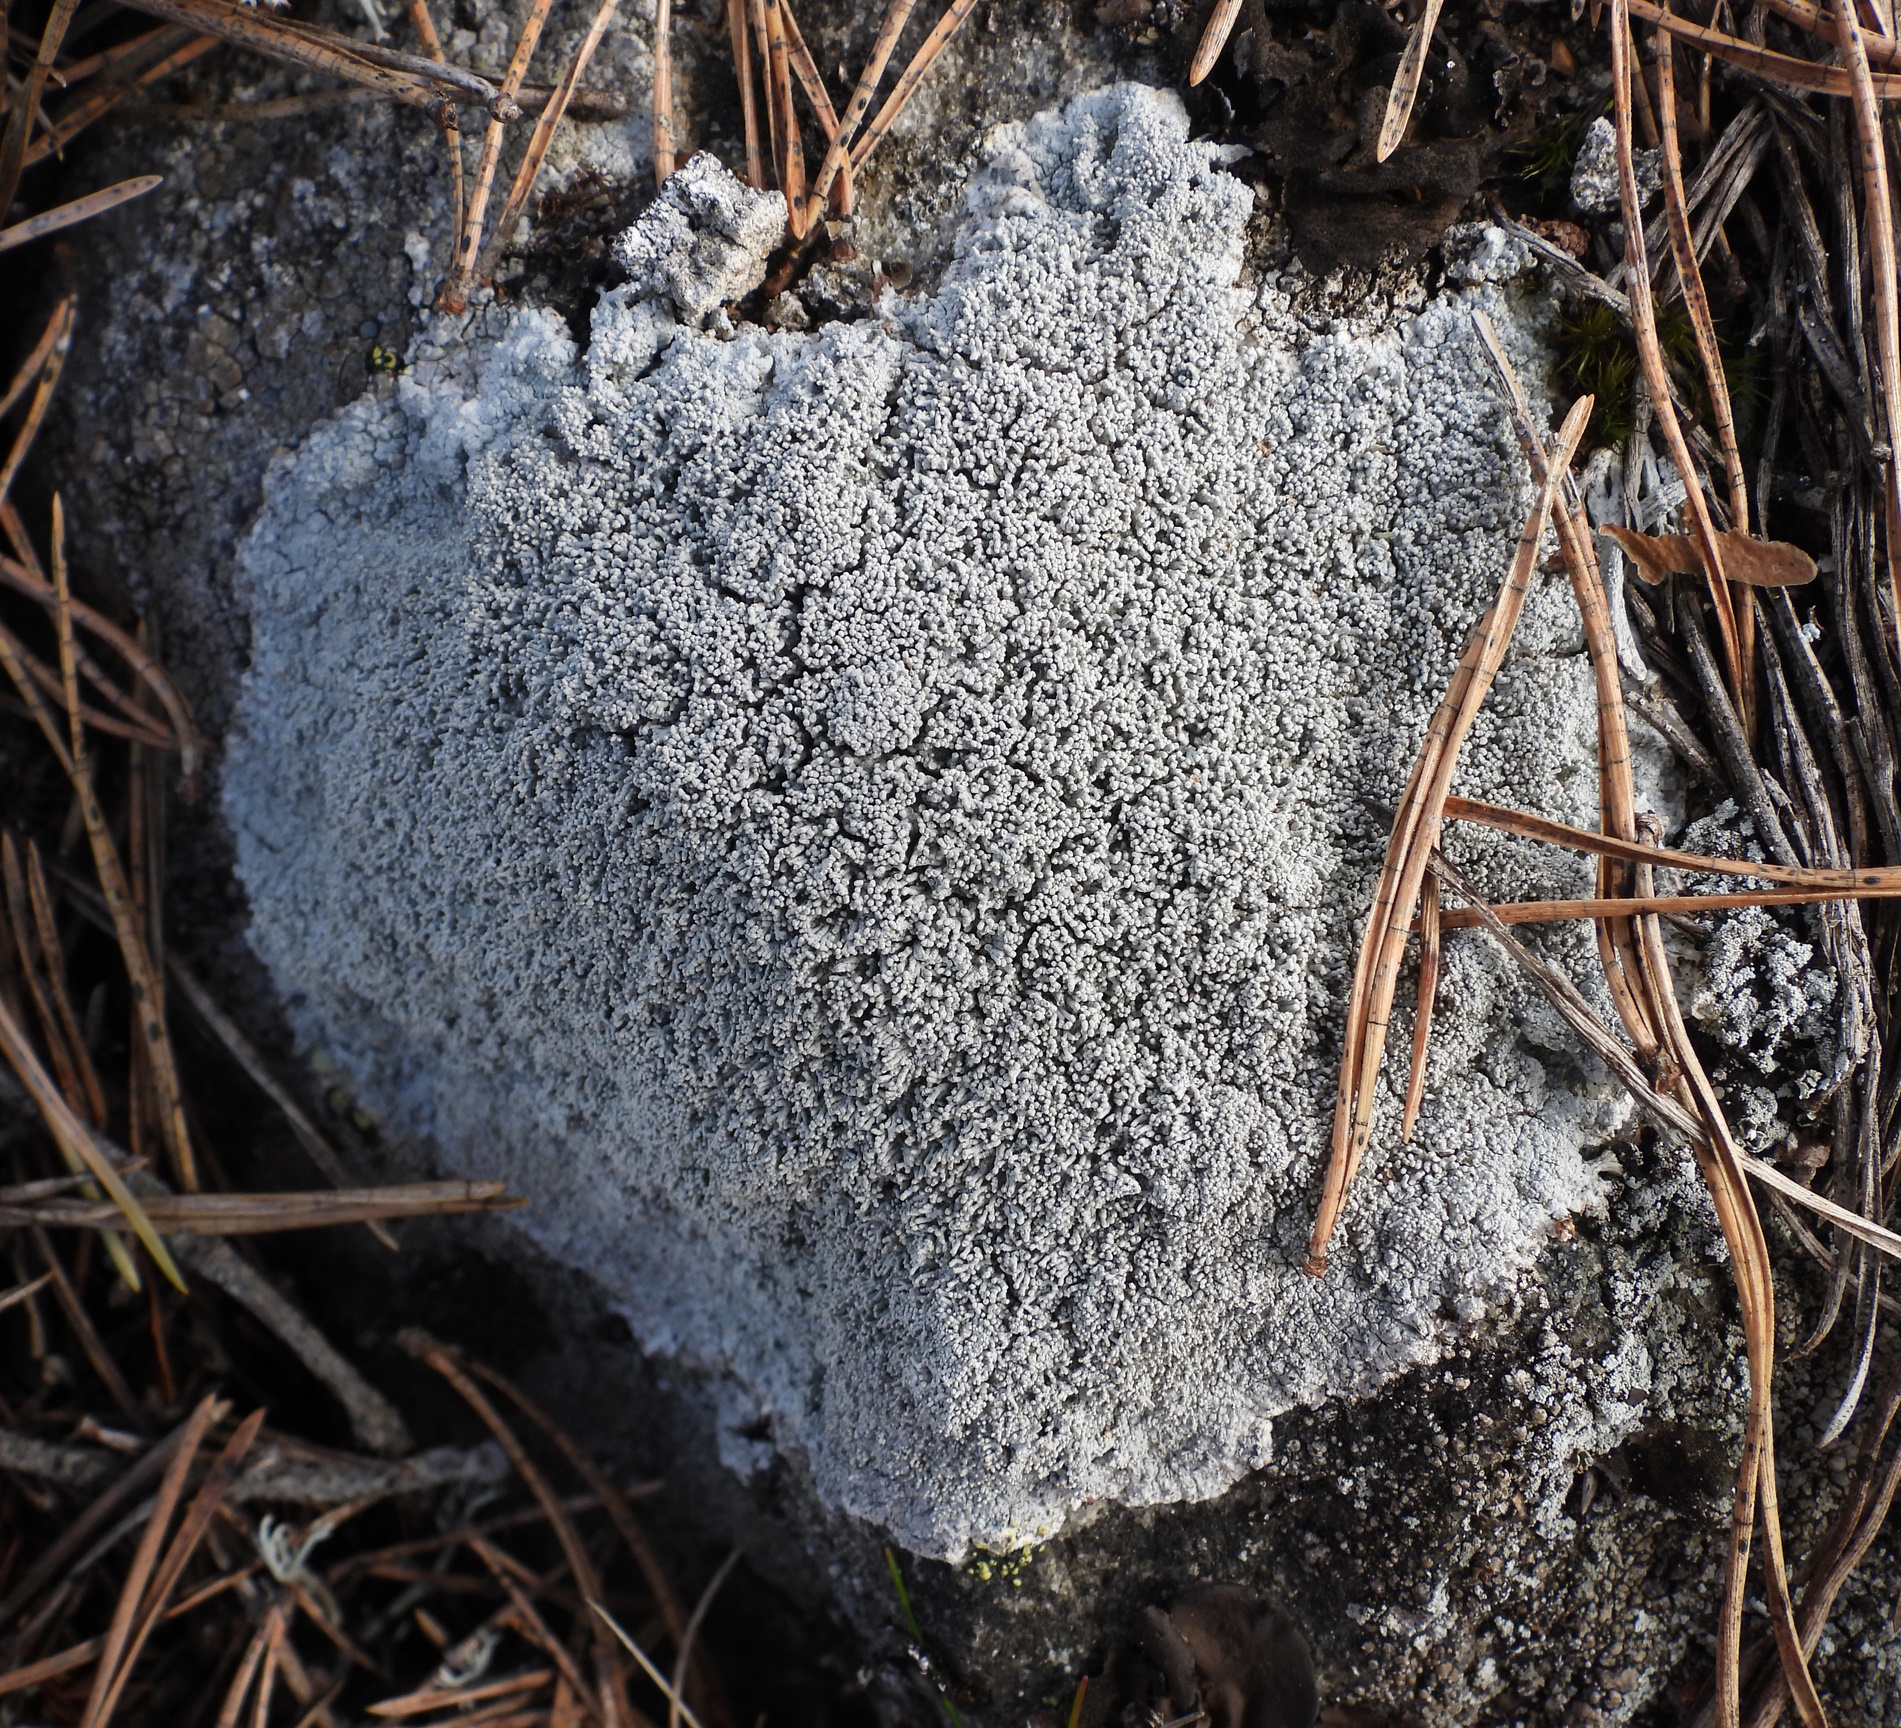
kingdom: Fungi
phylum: Ascomycota
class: Lecanoromycetes
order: Pertusariales
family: Pertusariaceae
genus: Lepra
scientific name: Lepra corallina
